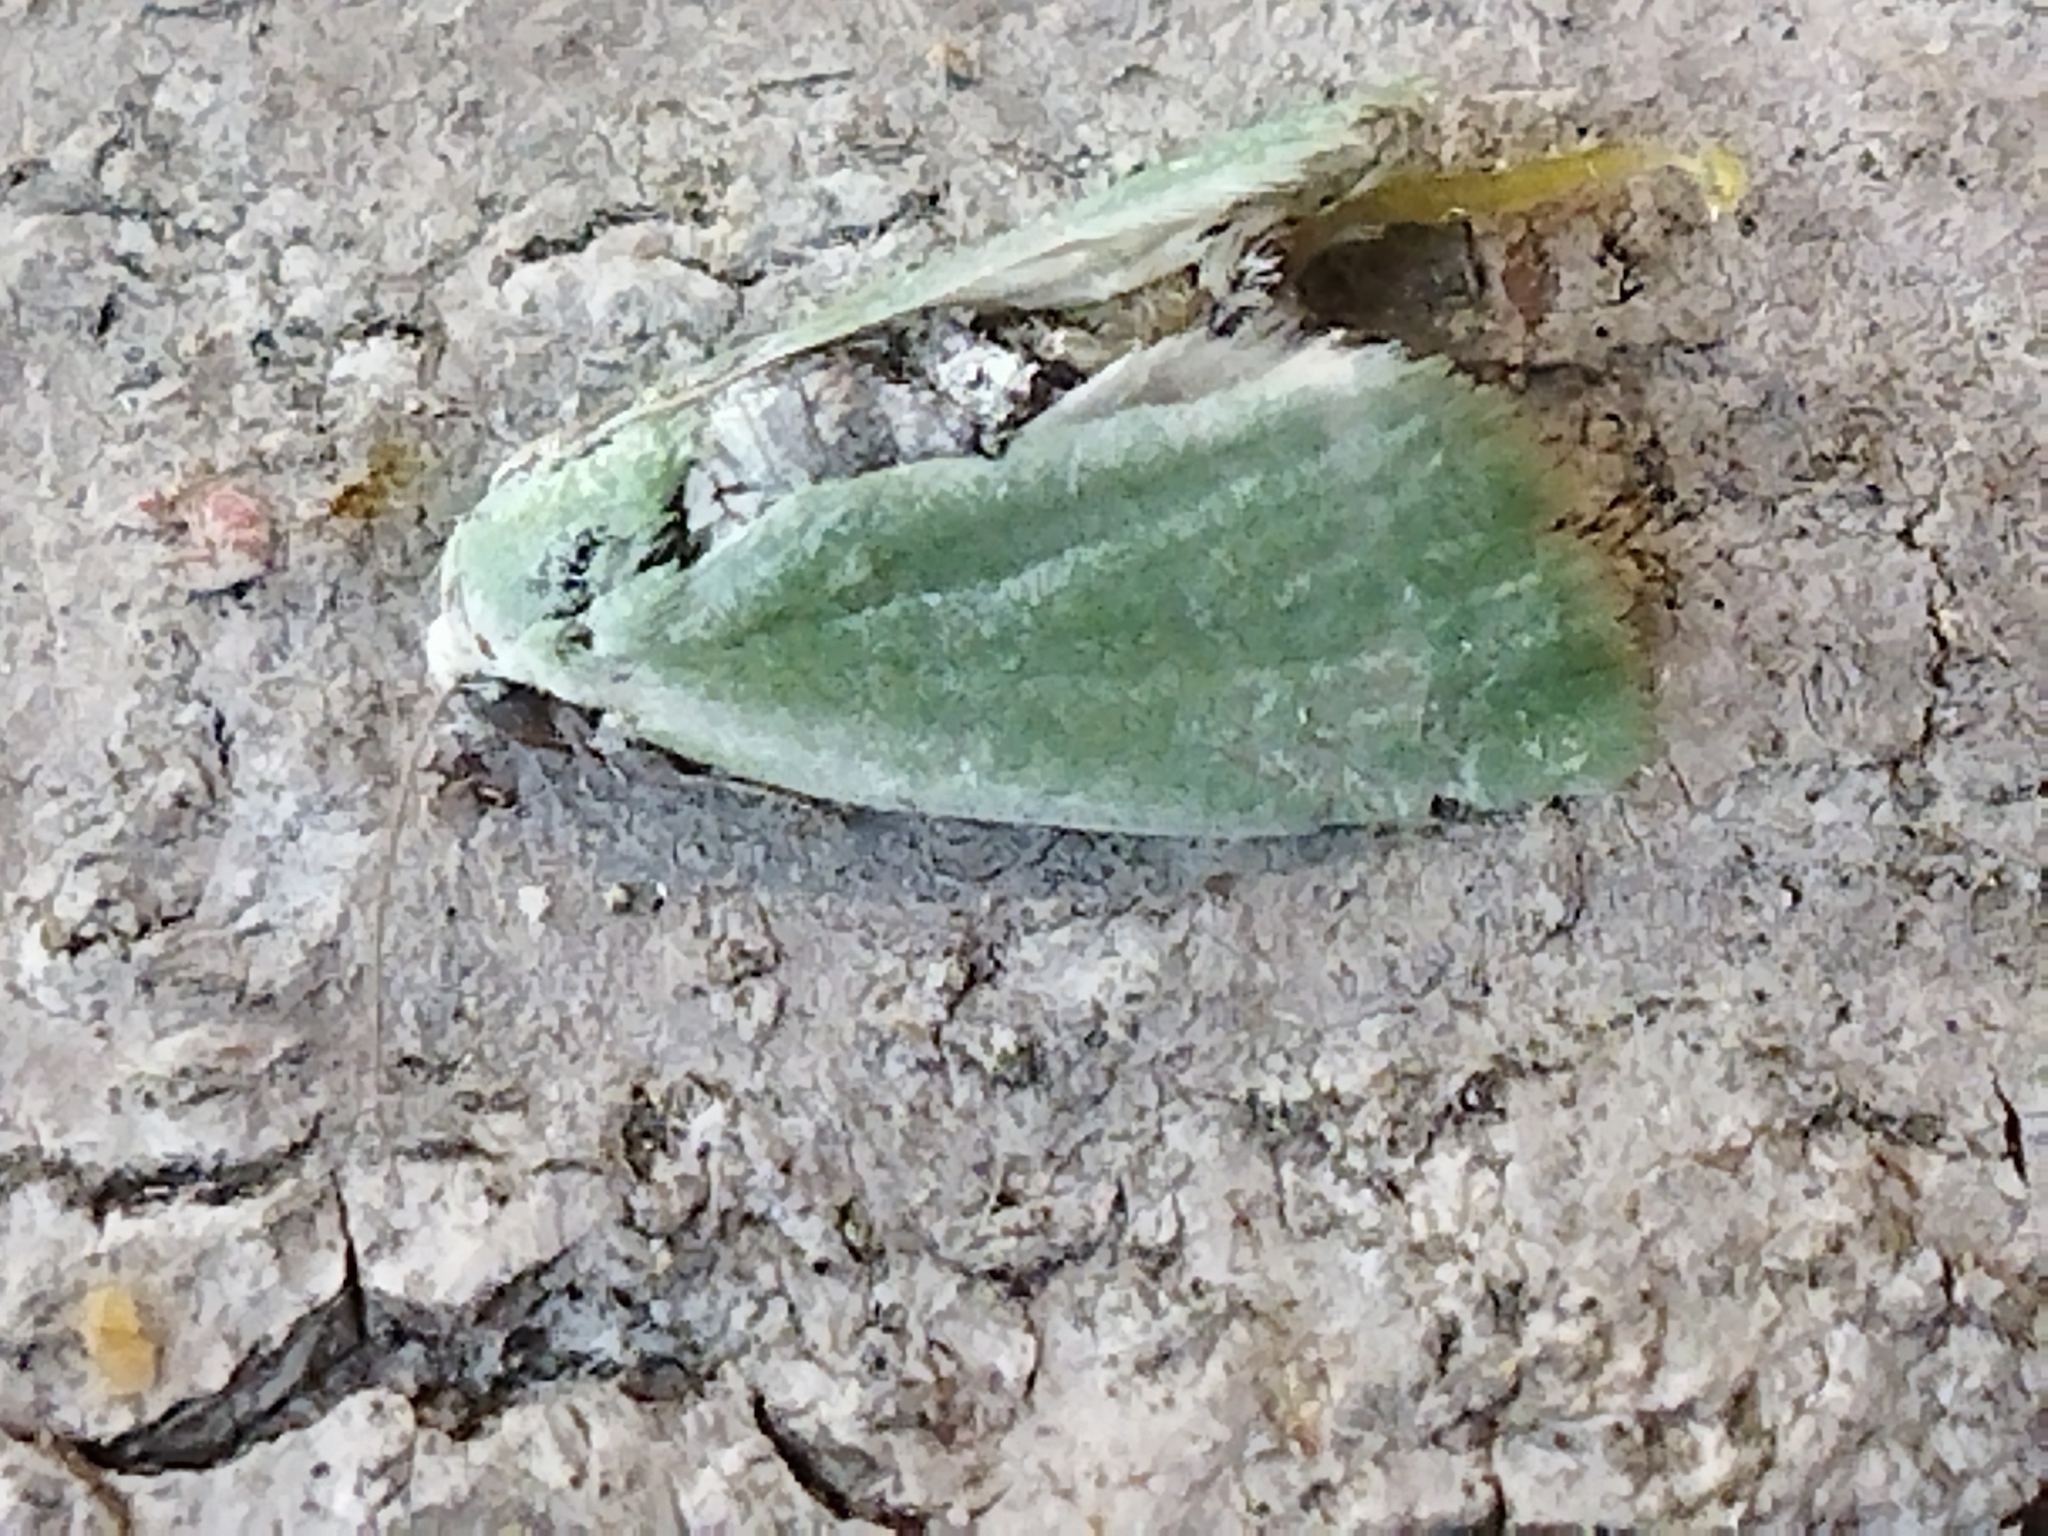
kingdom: Animalia
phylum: Arthropoda
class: Insecta
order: Lepidoptera
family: Nolidae
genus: Earias
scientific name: Earias clorana
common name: Cream-bordered green pea
